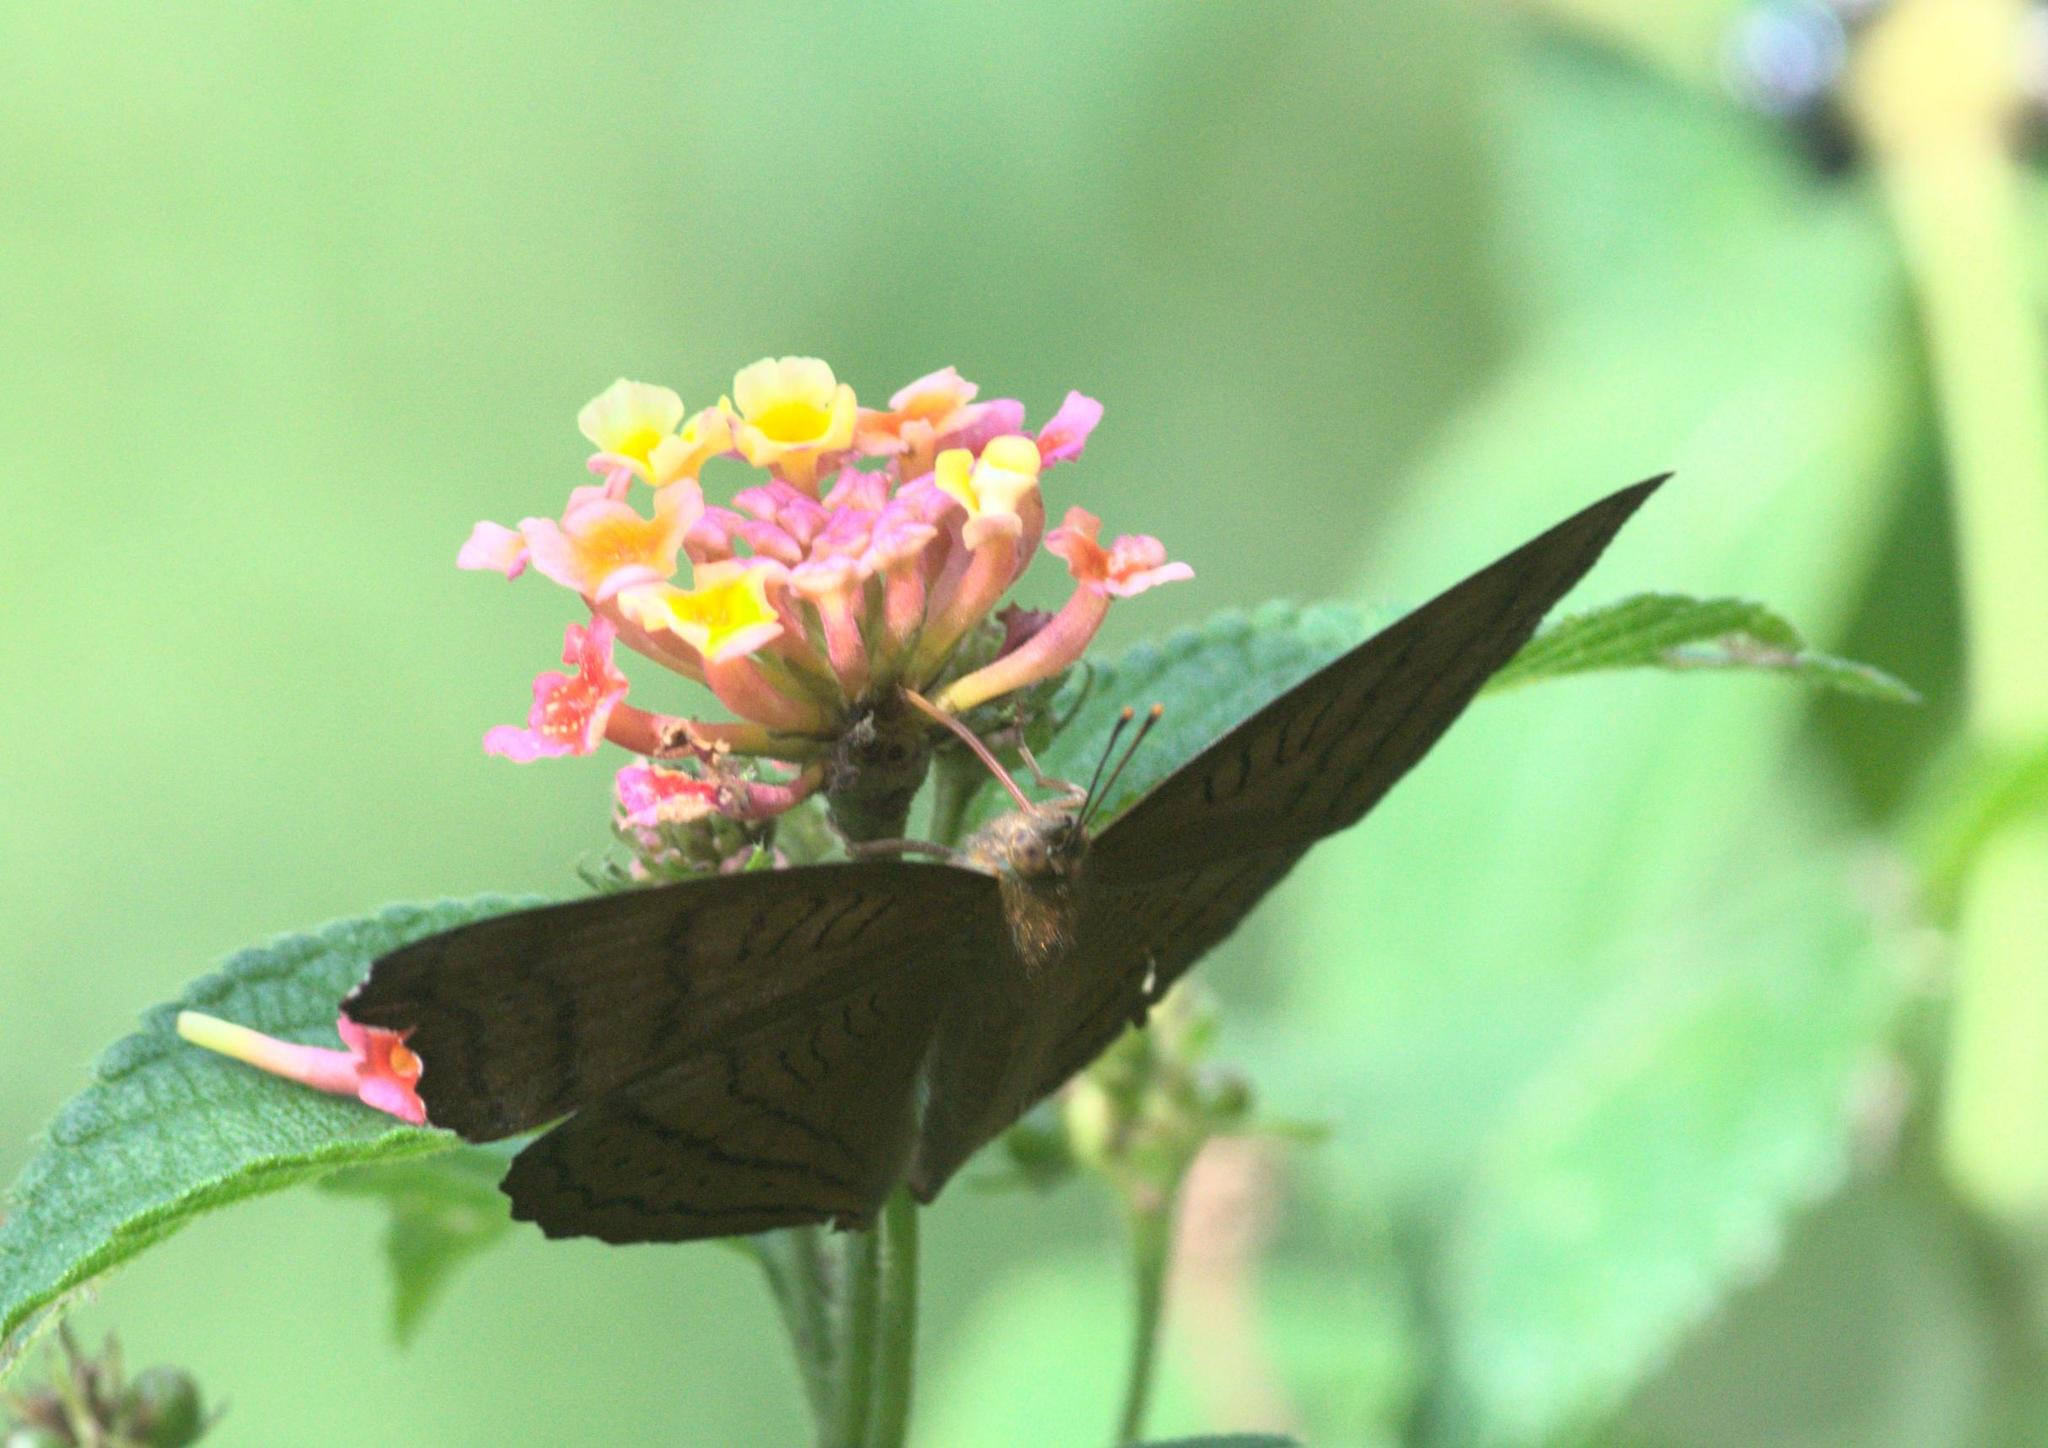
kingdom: Animalia
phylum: Arthropoda
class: Insecta
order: Lepidoptera
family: Nymphalidae
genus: Pseudergolis
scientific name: Pseudergolis wedah
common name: Tabby
